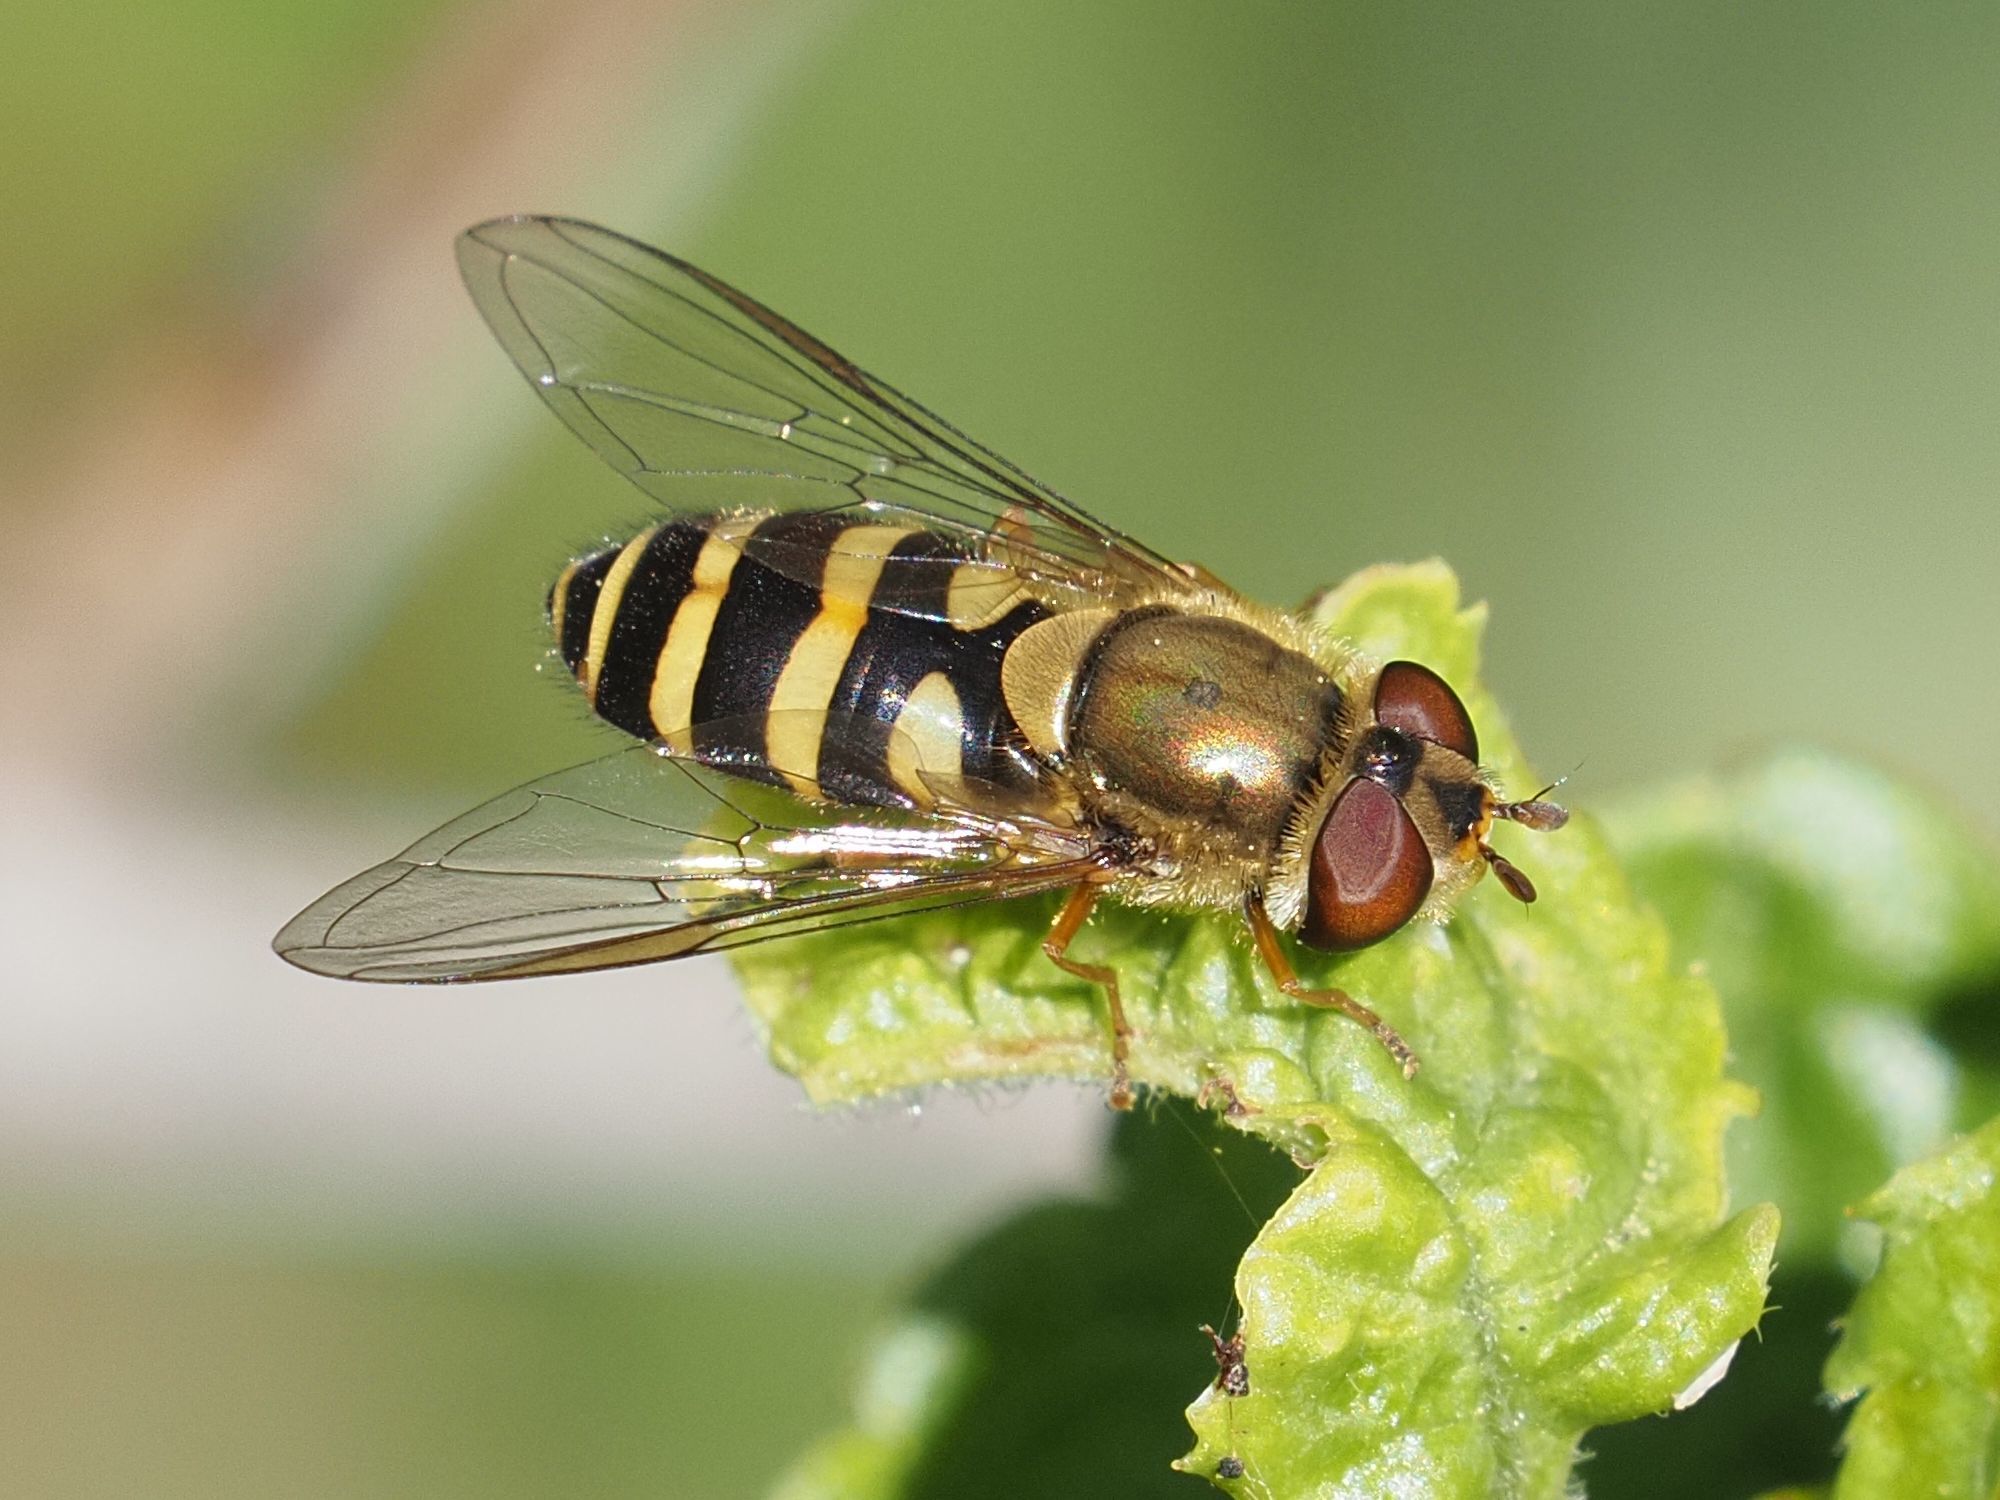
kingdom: Animalia
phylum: Arthropoda
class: Insecta
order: Diptera
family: Syrphidae
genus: Syrphus
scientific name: Syrphus
